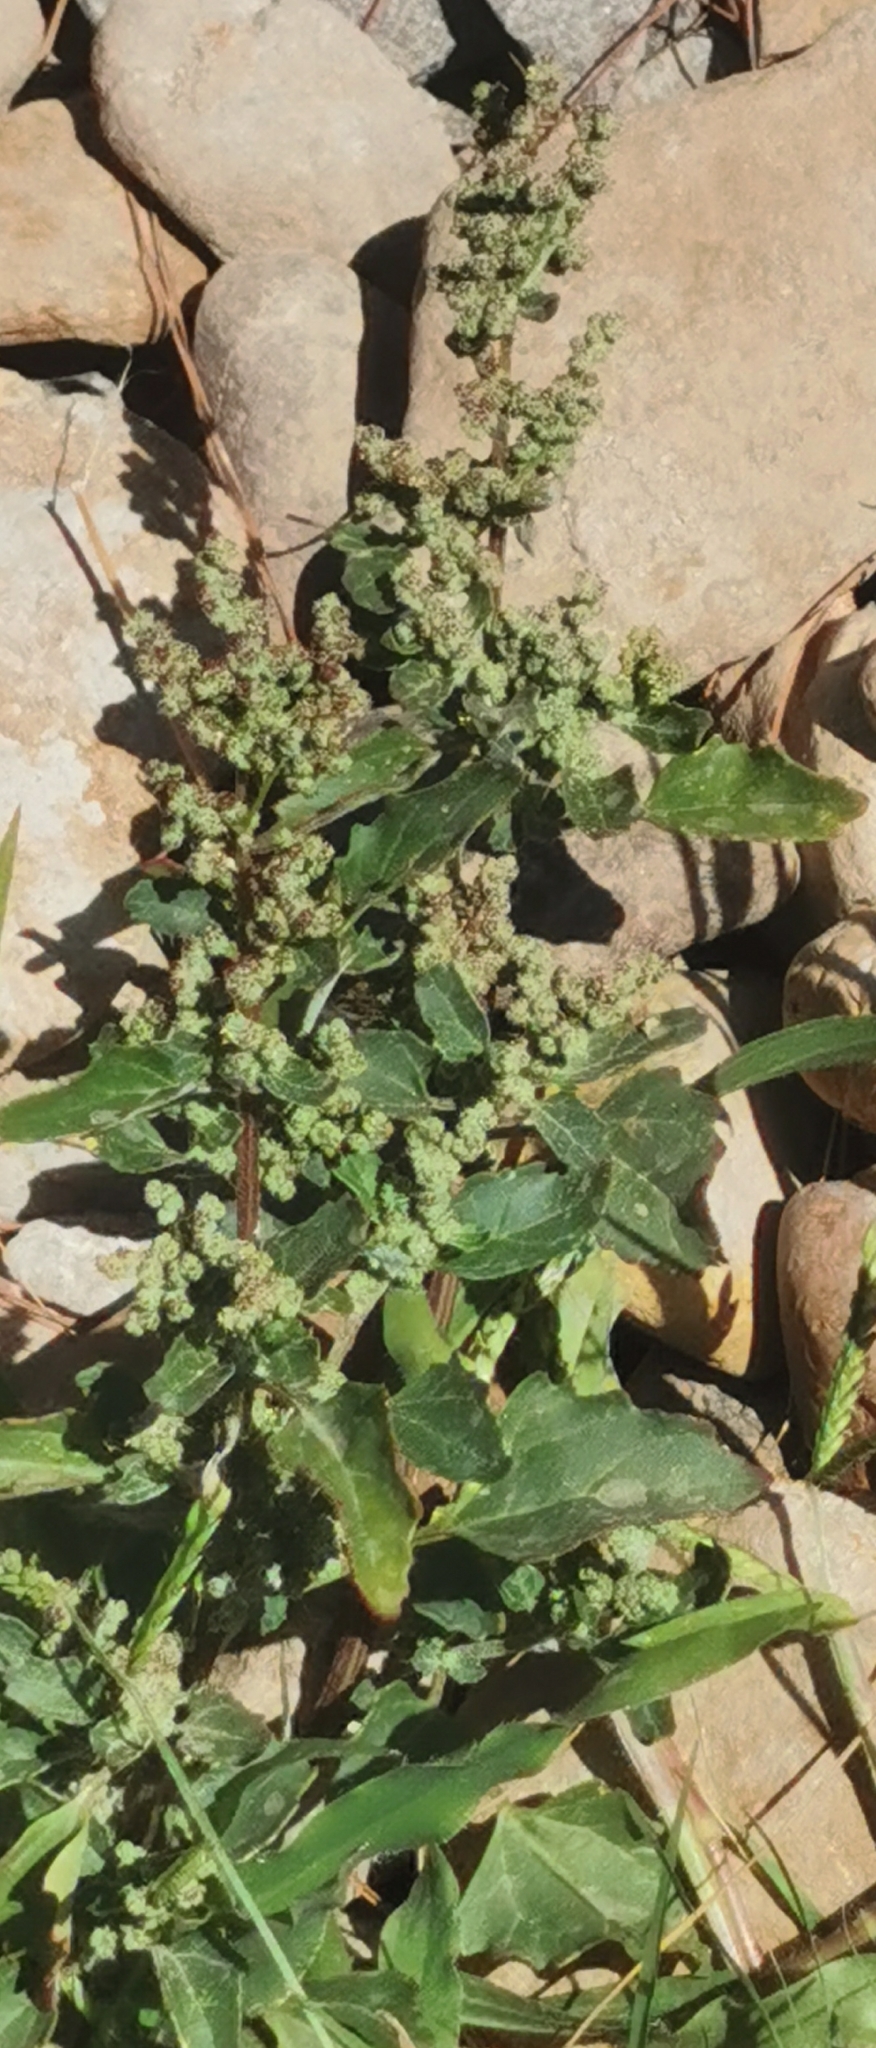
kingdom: Plantae
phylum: Tracheophyta
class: Magnoliopsida
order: Caryophyllales
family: Amaranthaceae
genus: Chenopodiastrum
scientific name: Chenopodiastrum murale
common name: Sowbane
